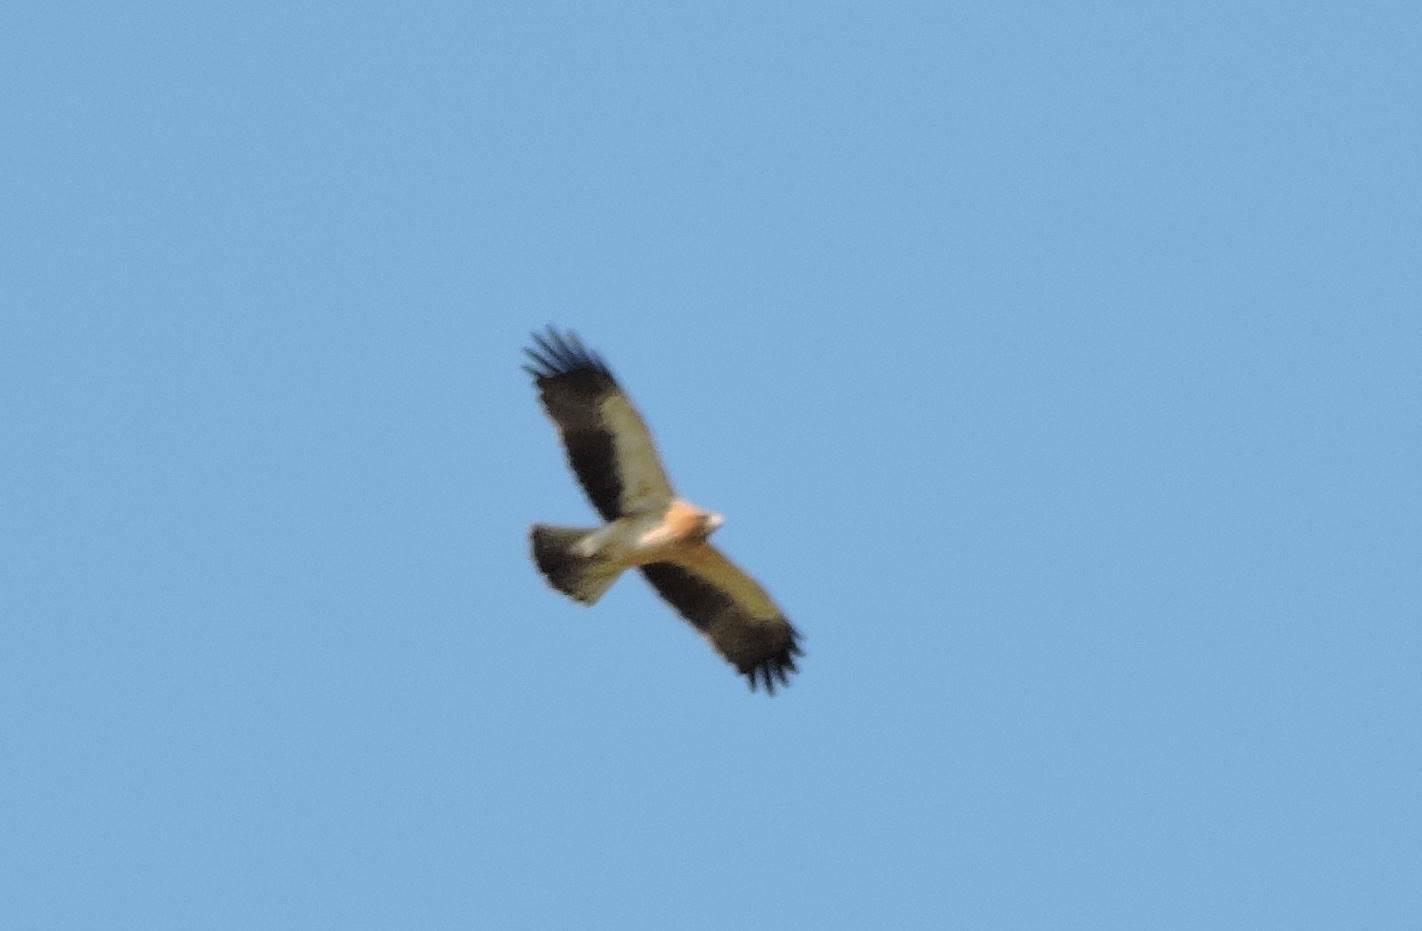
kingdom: Animalia
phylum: Chordata
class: Aves
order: Accipitriformes
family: Accipitridae
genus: Hieraaetus
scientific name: Hieraaetus pennatus
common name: Booted eagle
